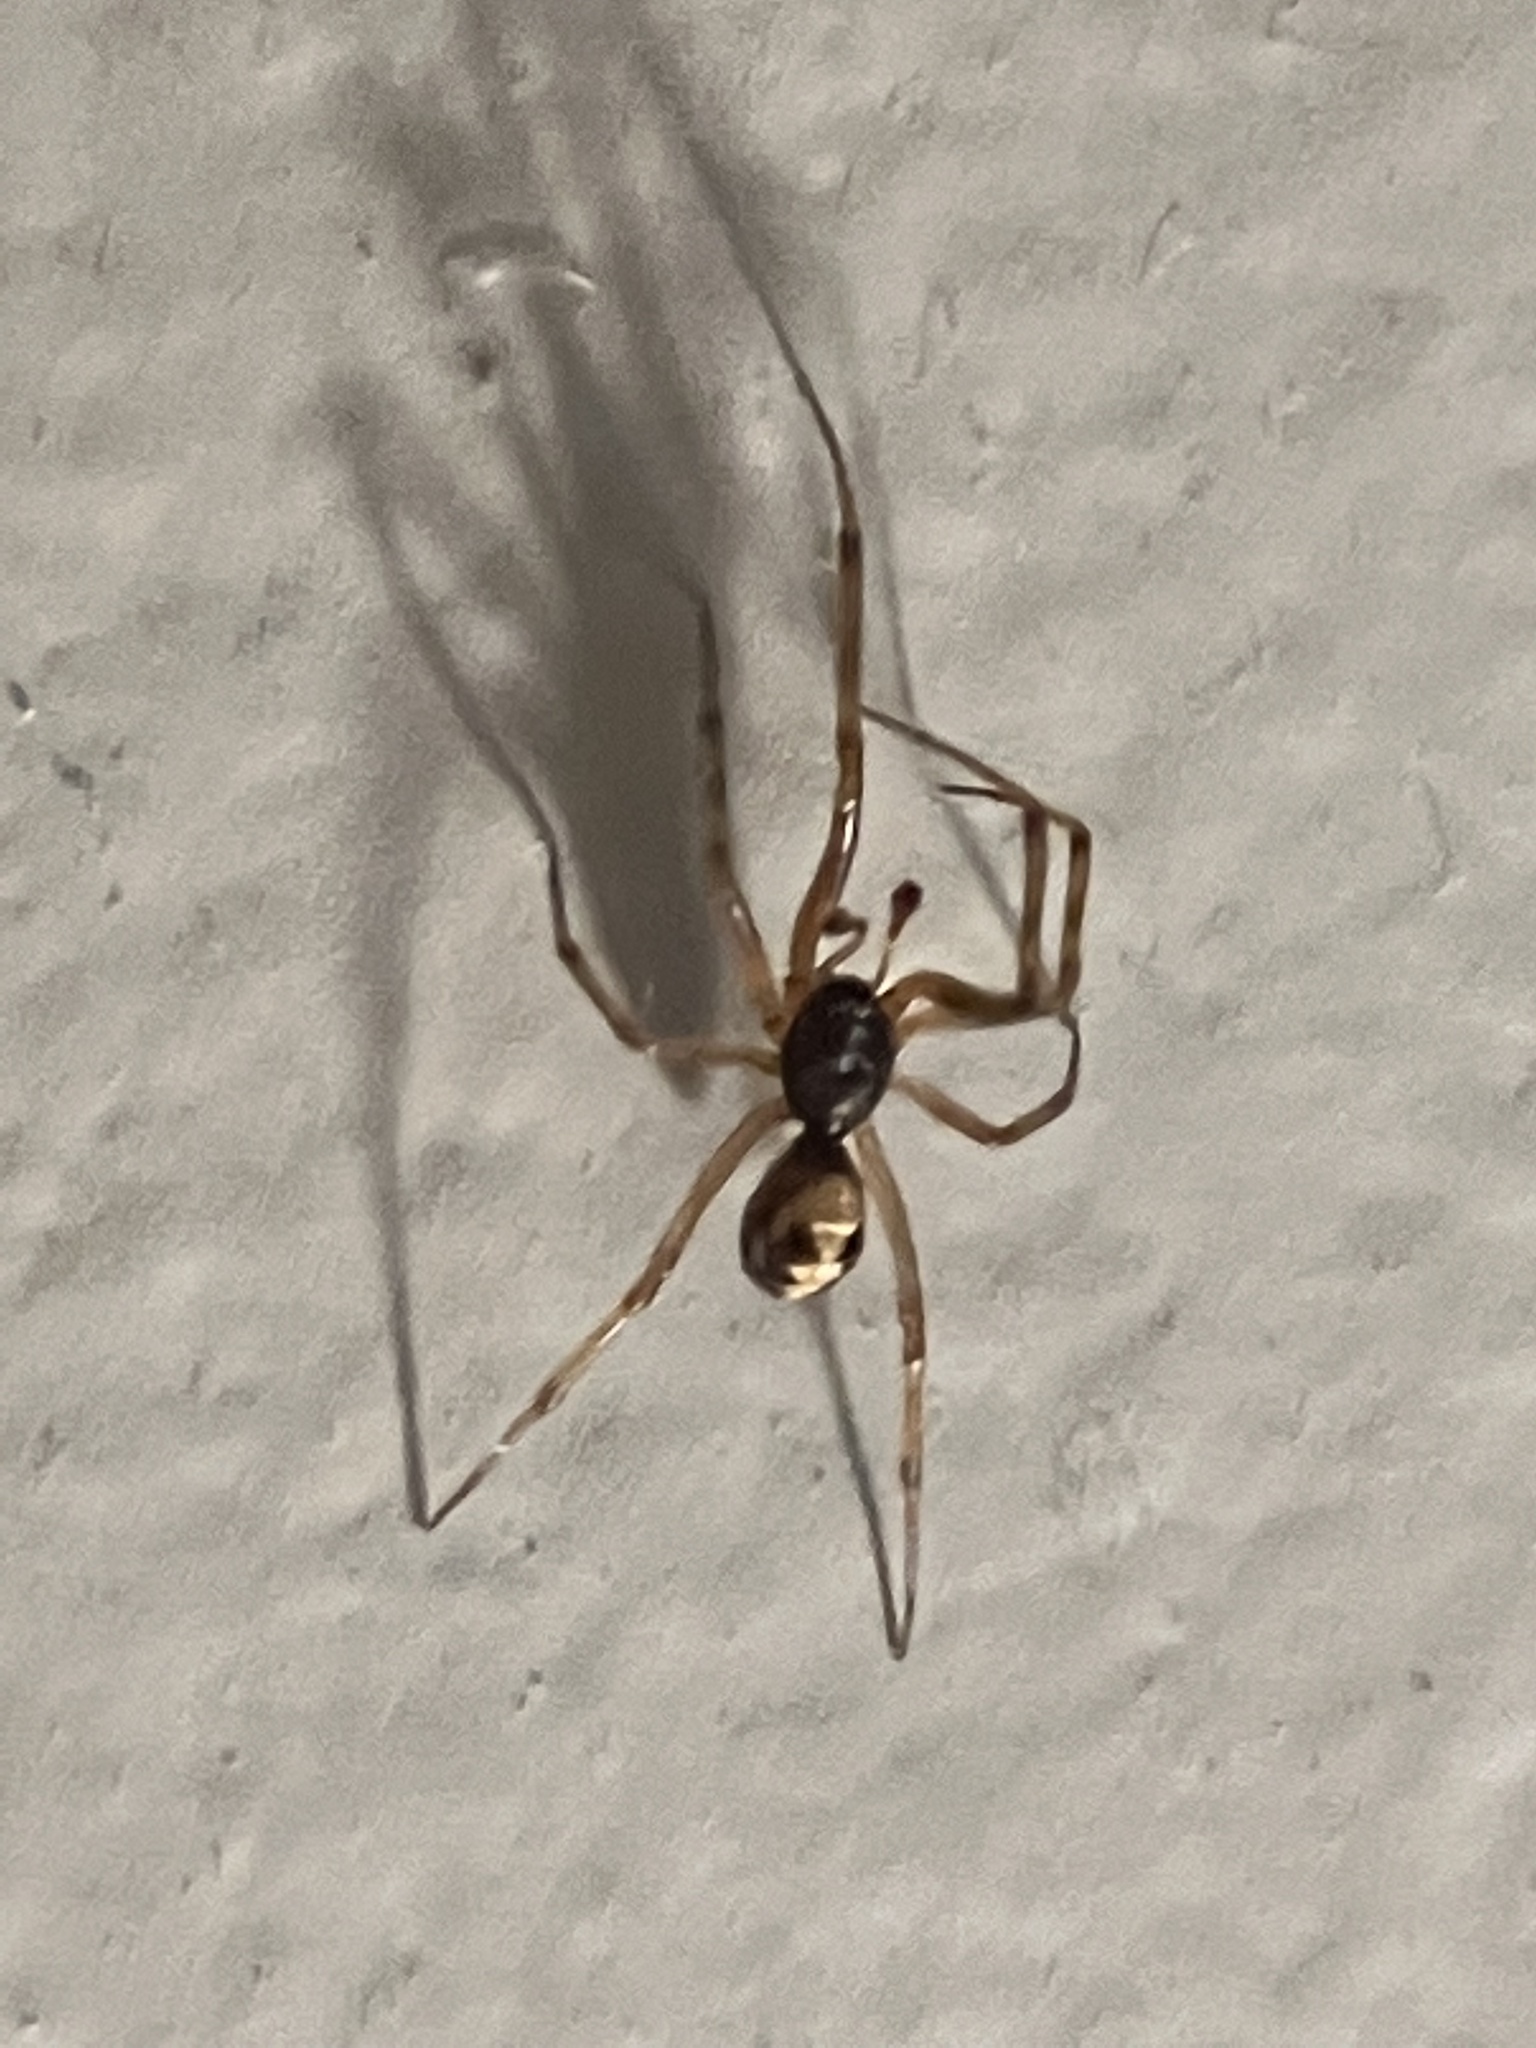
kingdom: Animalia
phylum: Arthropoda
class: Arachnida
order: Araneae
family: Theridiidae
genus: Steatoda
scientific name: Steatoda triangulosa
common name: Triangulate bud spider
